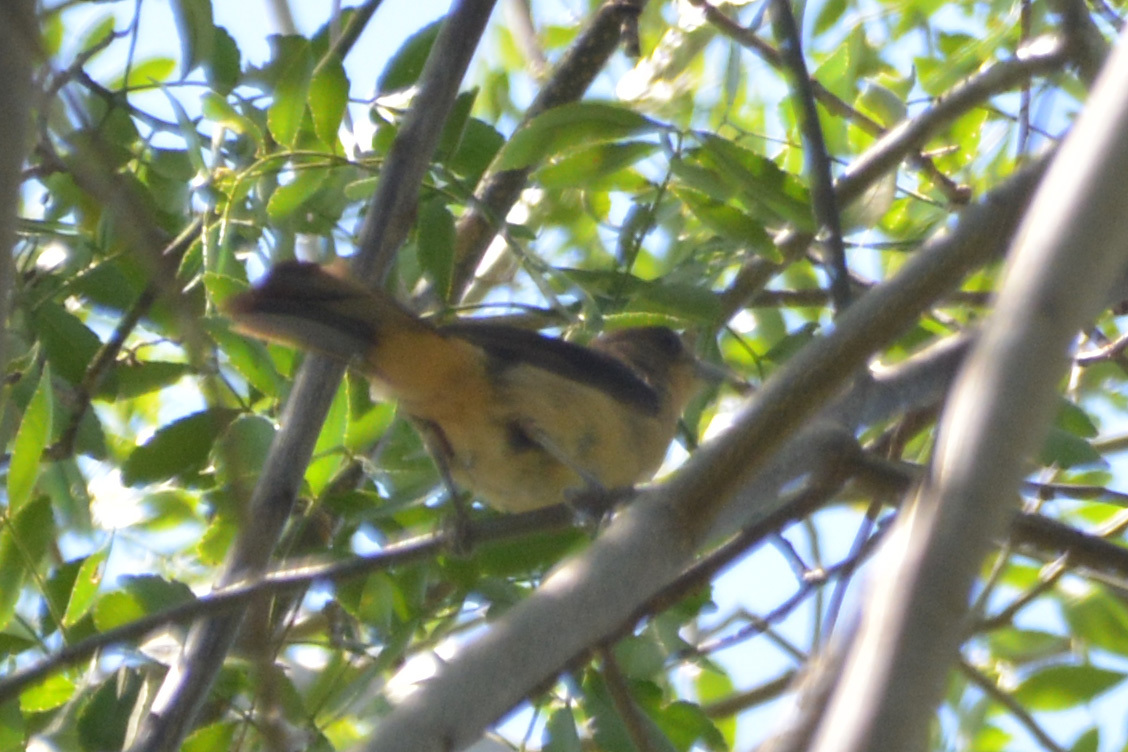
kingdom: Animalia
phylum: Chordata
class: Aves
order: Passeriformes
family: Thraupidae
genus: Trichothraupis
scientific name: Trichothraupis melanops
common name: Black-goggled tanager
